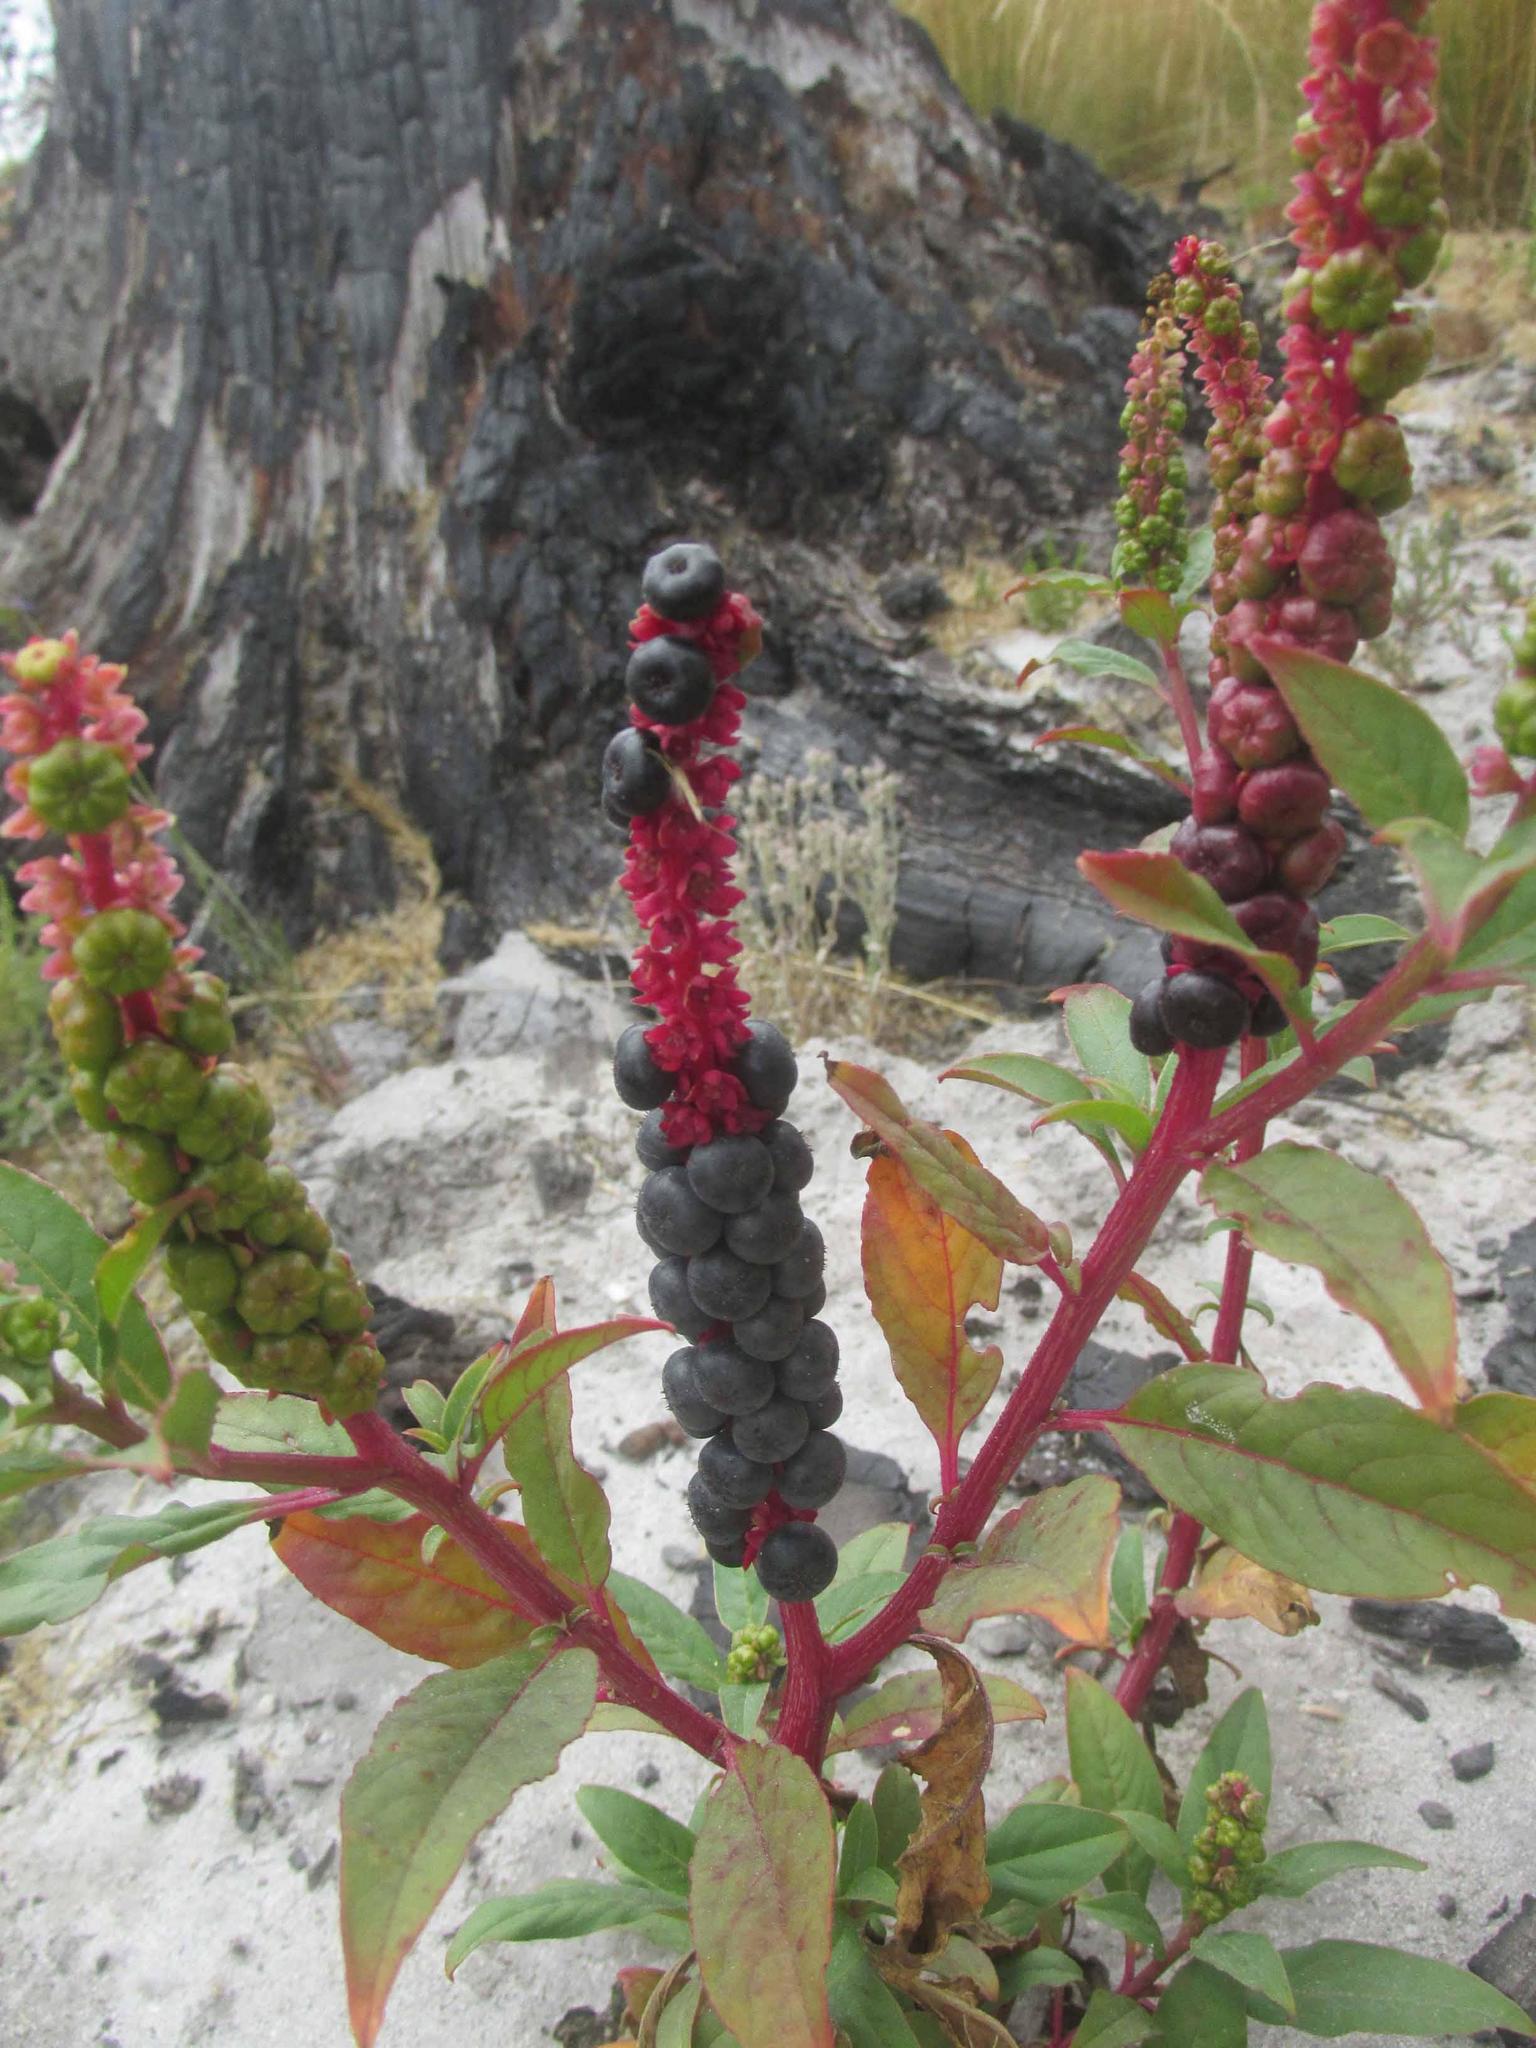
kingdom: Plantae
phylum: Tracheophyta
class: Magnoliopsida
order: Caryophyllales
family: Phytolaccaceae
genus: Phytolacca
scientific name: Phytolacca icosandra
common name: Button pokeweed
